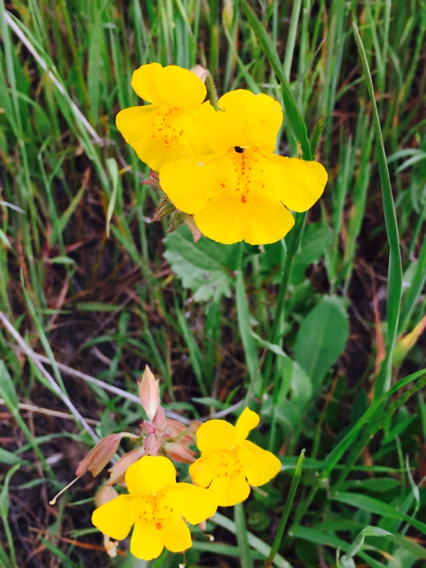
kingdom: Plantae
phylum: Tracheophyta
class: Magnoliopsida
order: Lamiales
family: Phrymaceae
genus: Erythranthe
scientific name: Erythranthe guttata
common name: Monkeyflower
